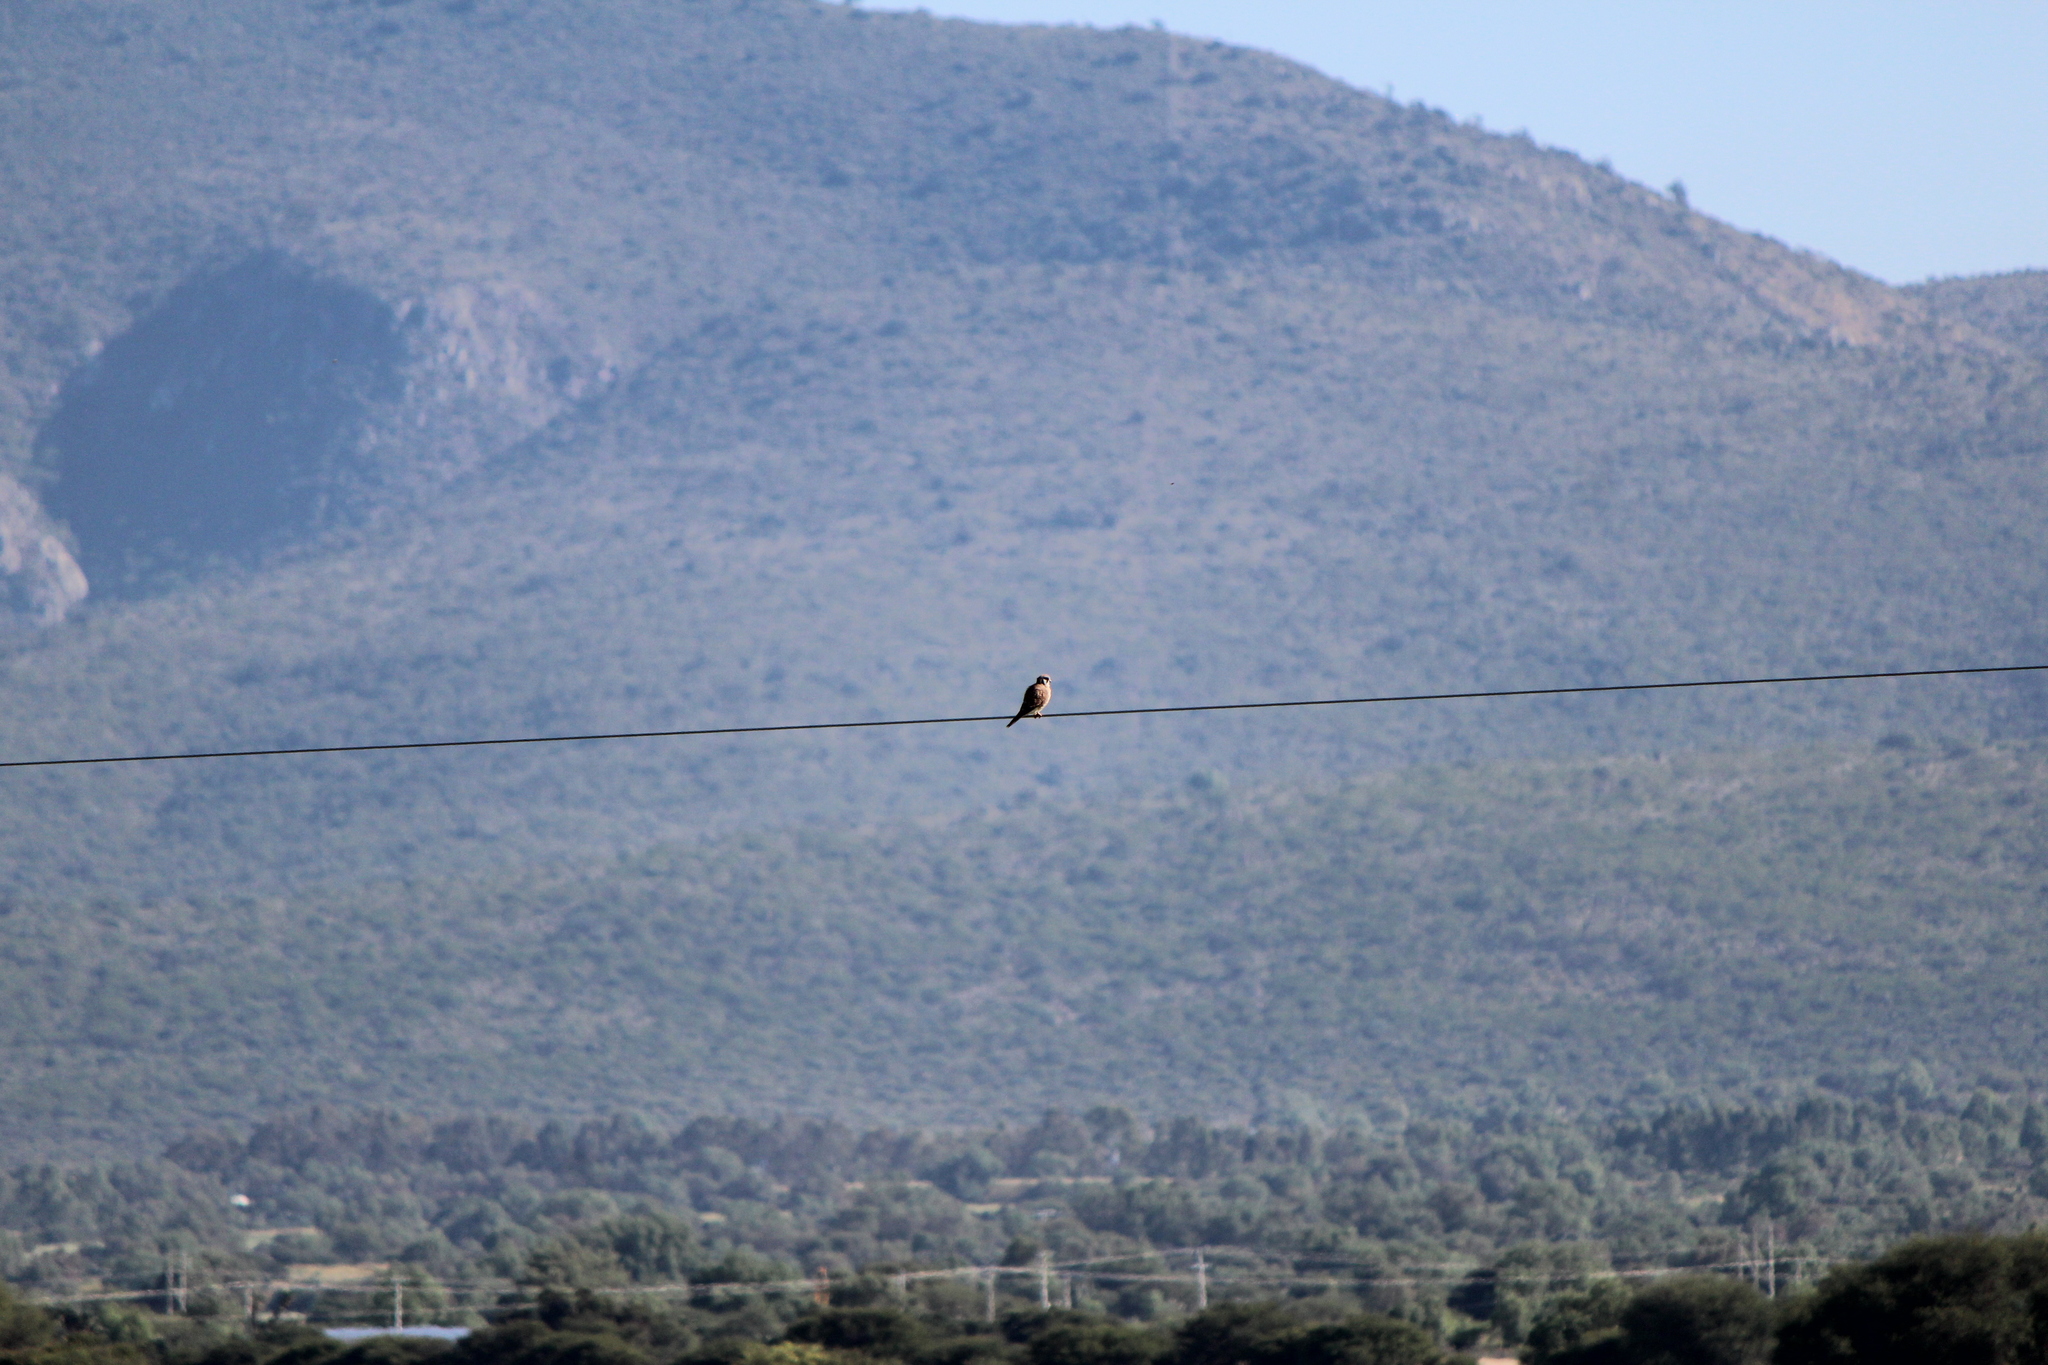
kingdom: Animalia
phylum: Chordata
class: Aves
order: Falconiformes
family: Falconidae
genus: Falco
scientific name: Falco sparverius
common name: American kestrel
